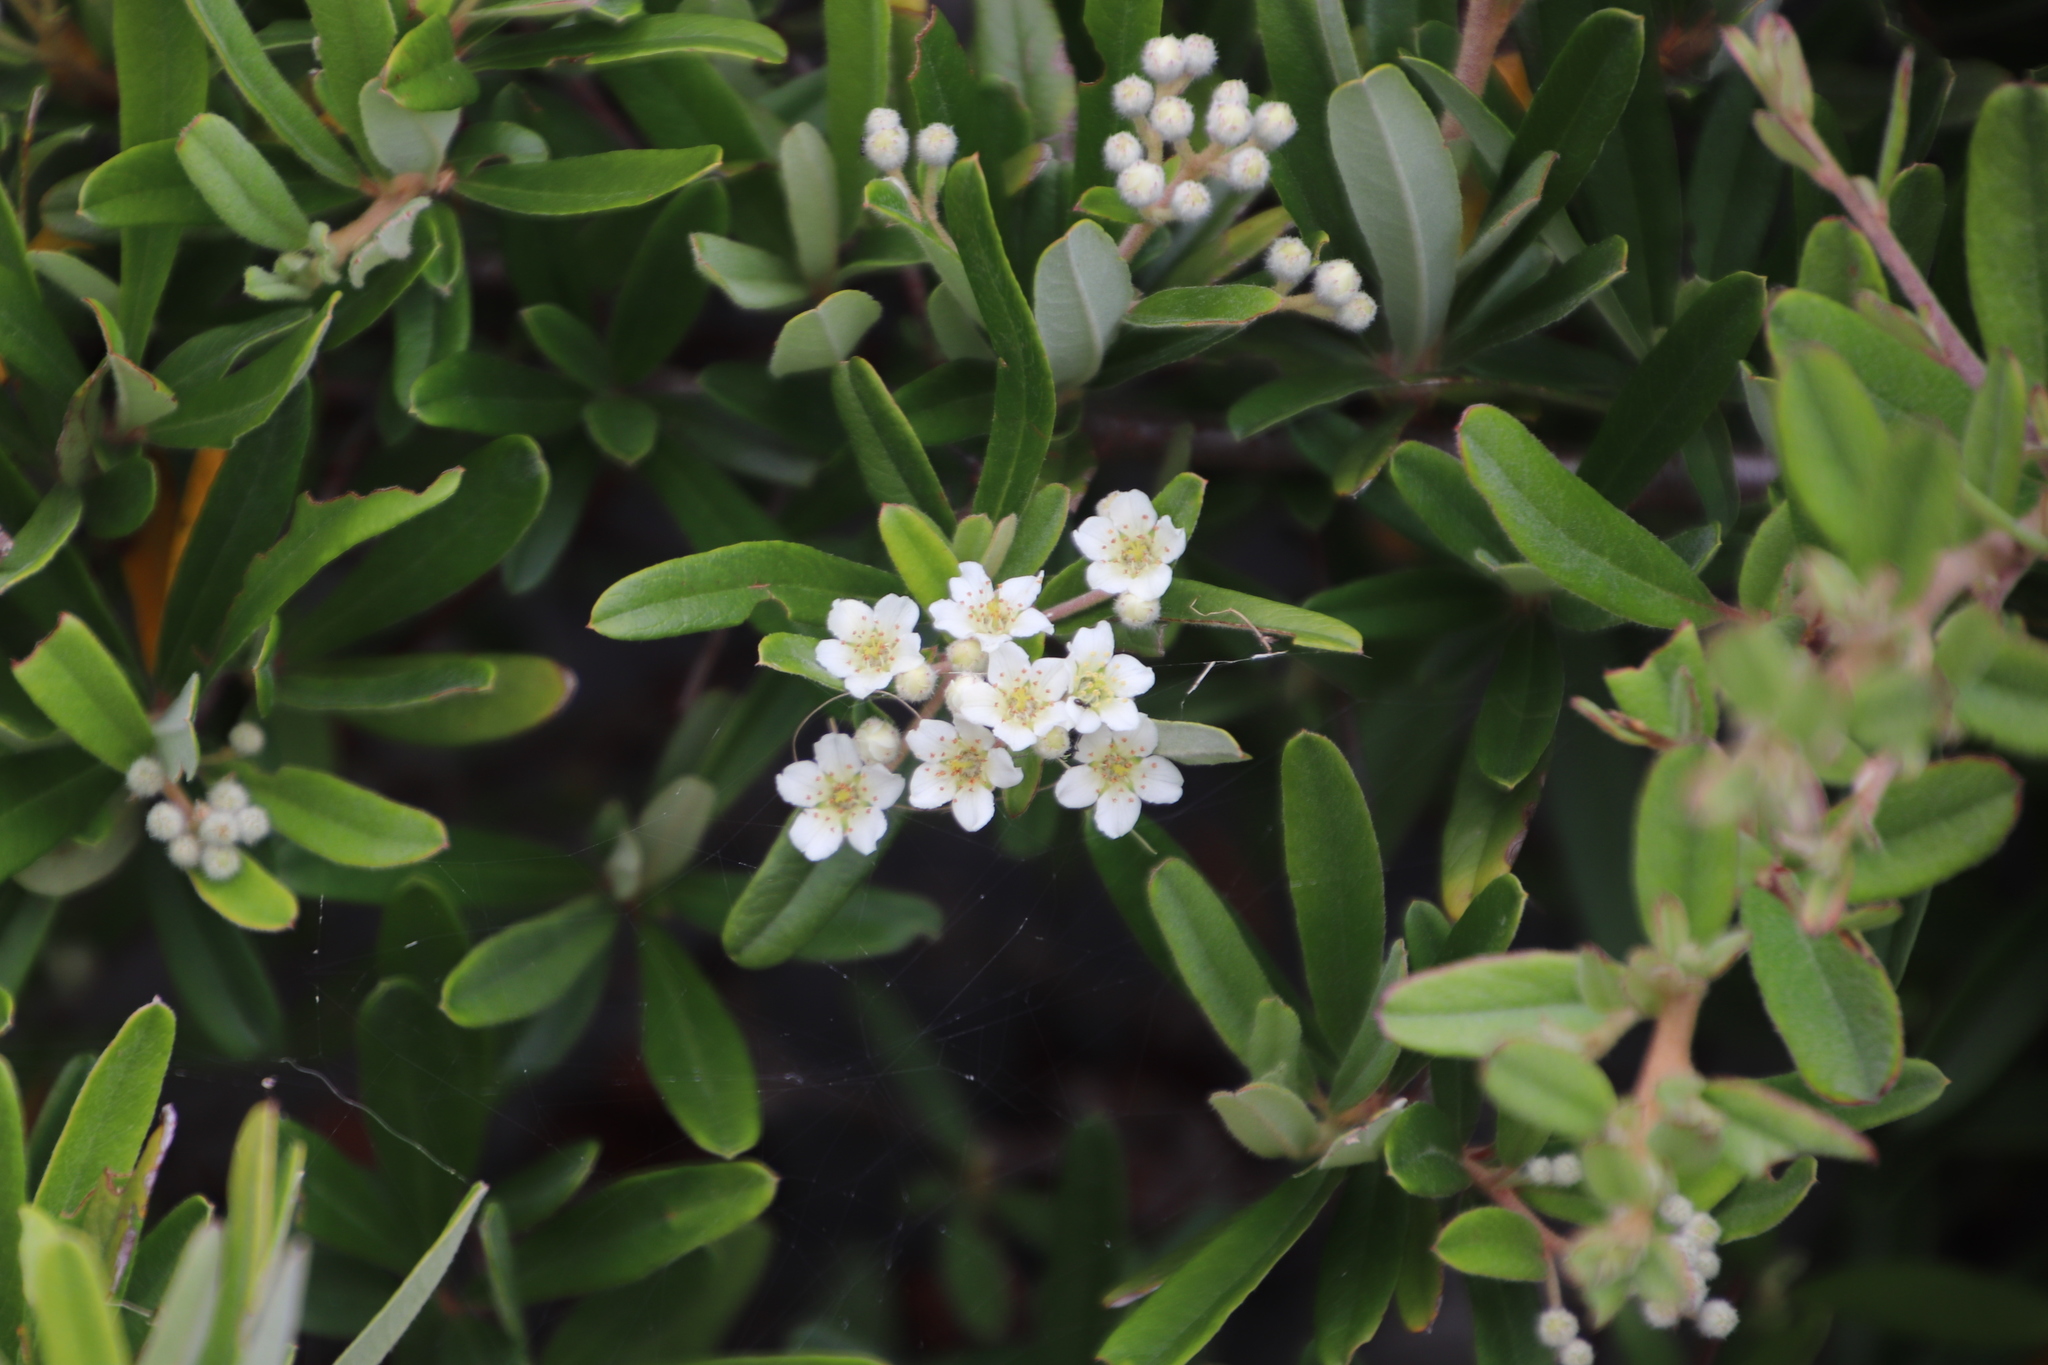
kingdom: Plantae
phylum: Tracheophyta
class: Magnoliopsida
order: Rosales
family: Rosaceae
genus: Pyracantha
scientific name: Pyracantha angustifolia
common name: Narrowleaf firethorn
